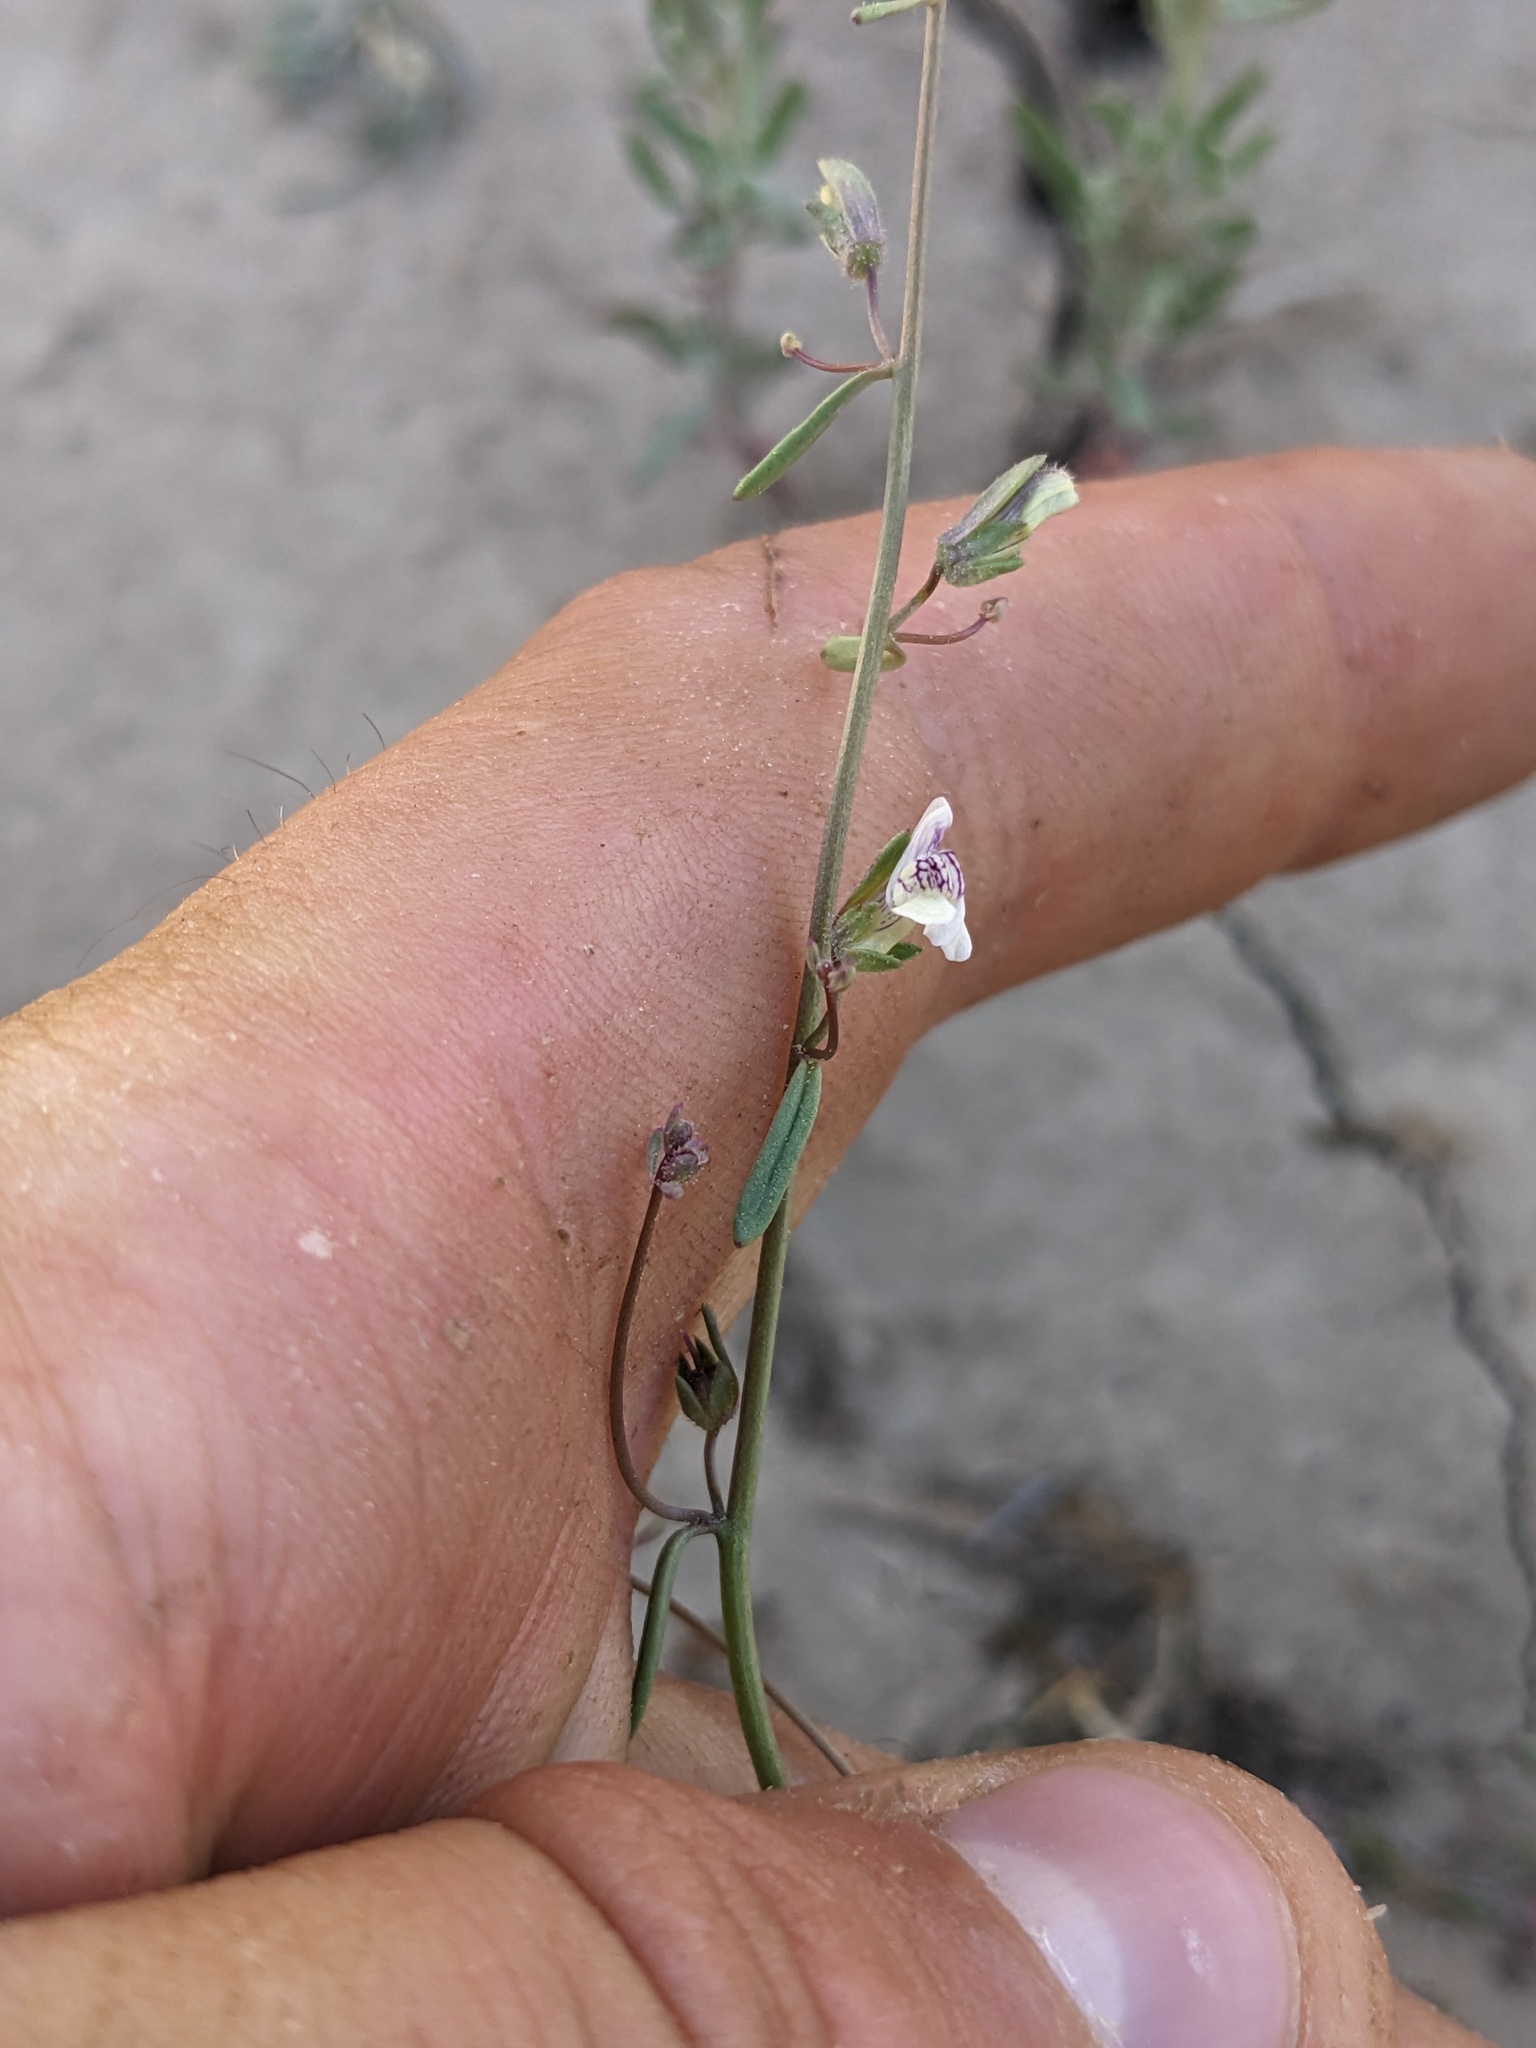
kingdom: Plantae
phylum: Tracheophyta
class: Magnoliopsida
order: Lamiales
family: Plantaginaceae
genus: Sairocarpus
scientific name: Sairocarpus kingii
